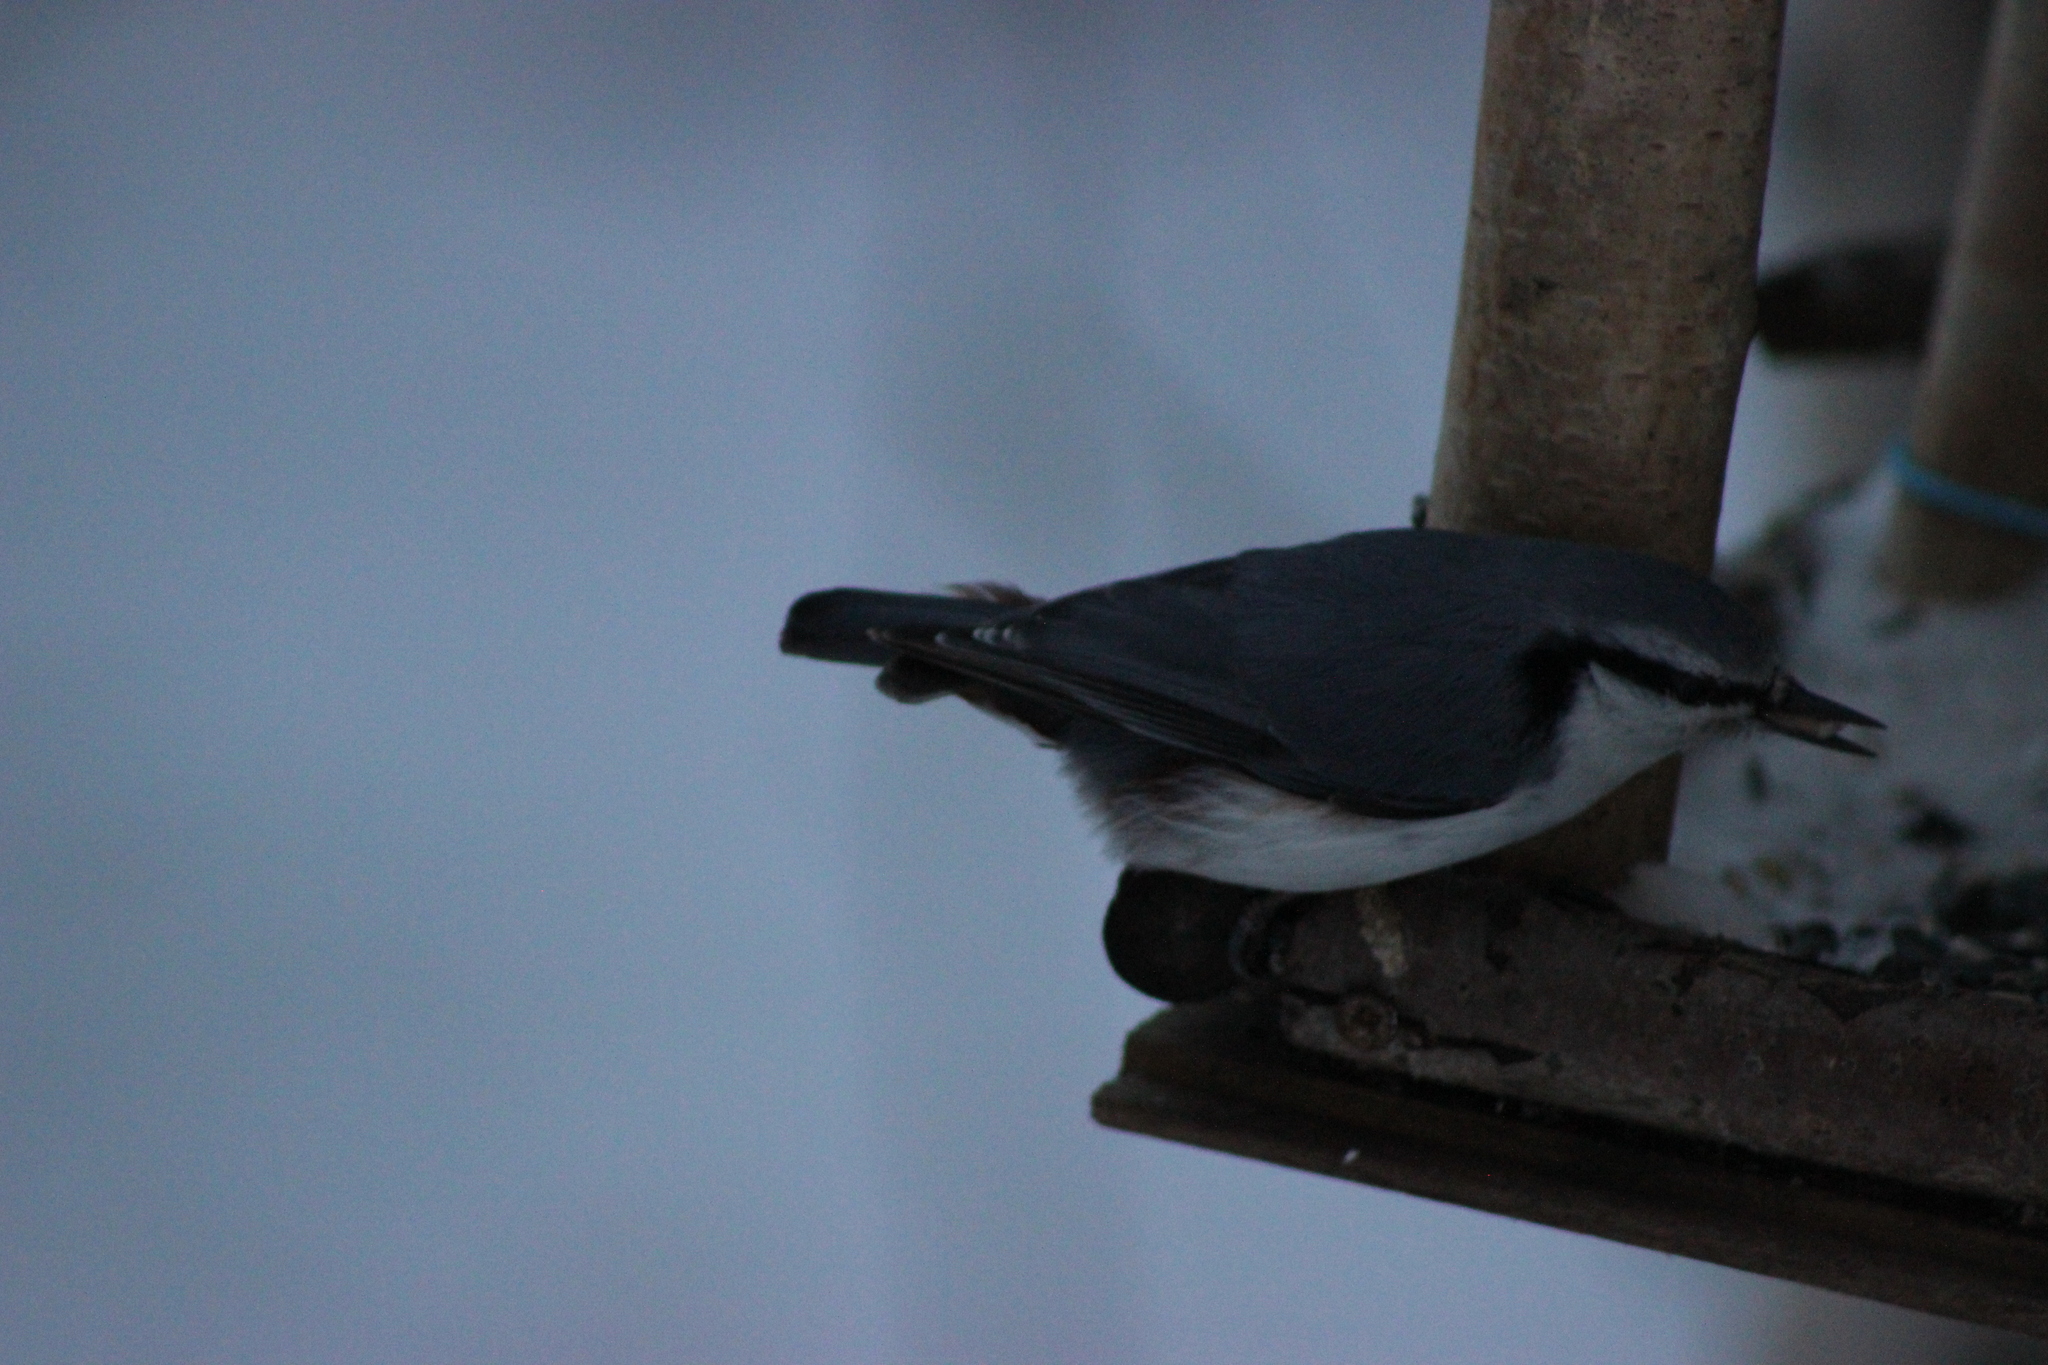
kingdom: Animalia
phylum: Chordata
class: Aves
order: Passeriformes
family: Sittidae
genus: Sitta
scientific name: Sitta europaea
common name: Eurasian nuthatch
